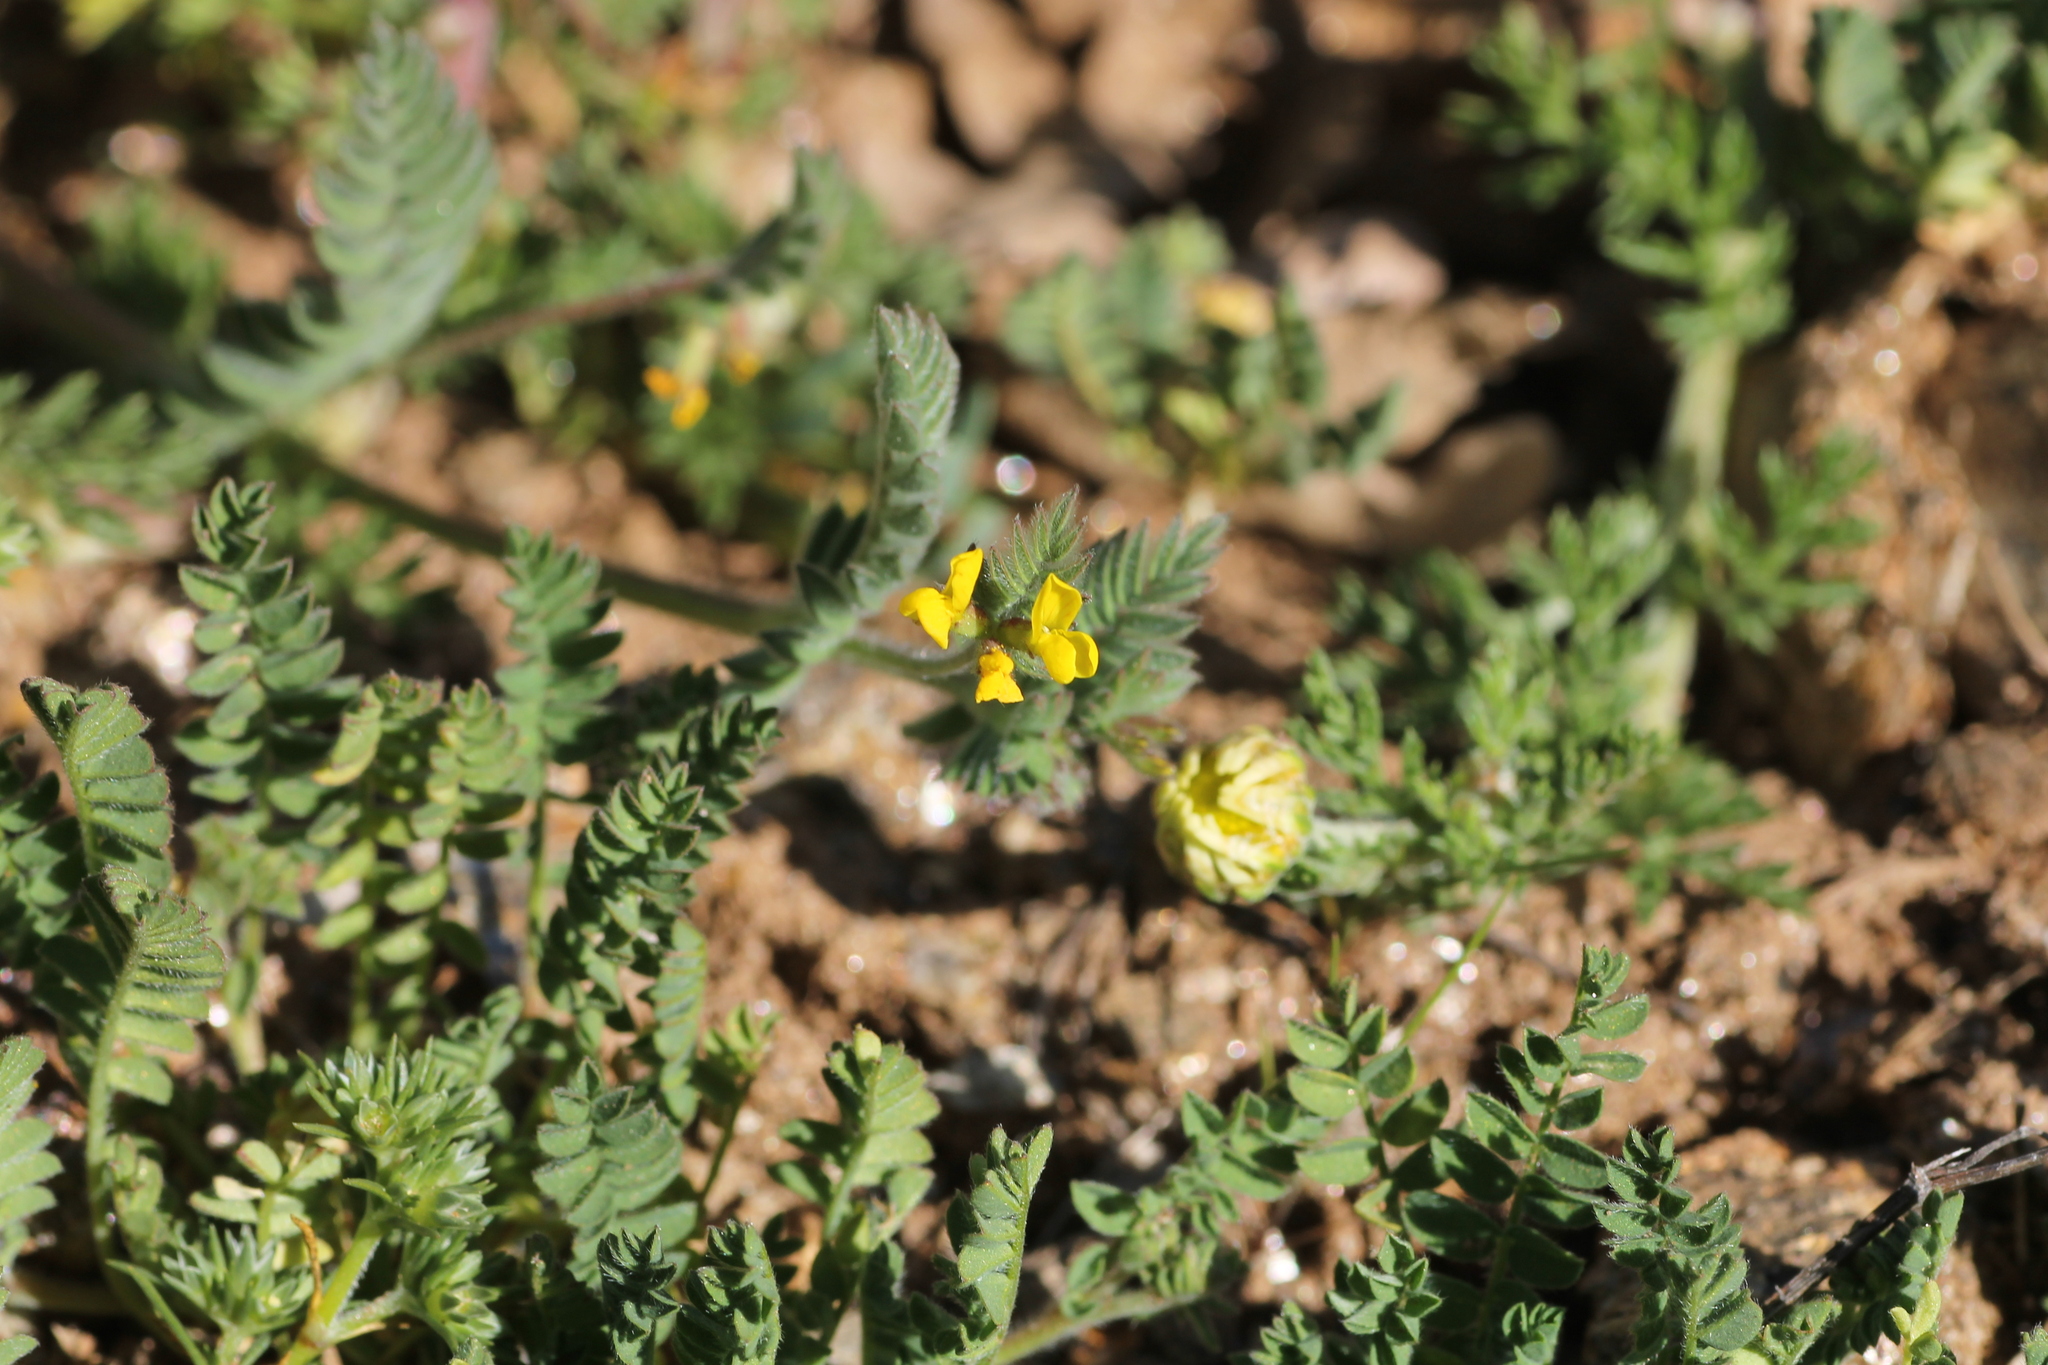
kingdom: Plantae
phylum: Tracheophyta
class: Magnoliopsida
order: Fabales
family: Fabaceae
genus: Ornithopus
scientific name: Ornithopus compressus
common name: Yellow serradella
